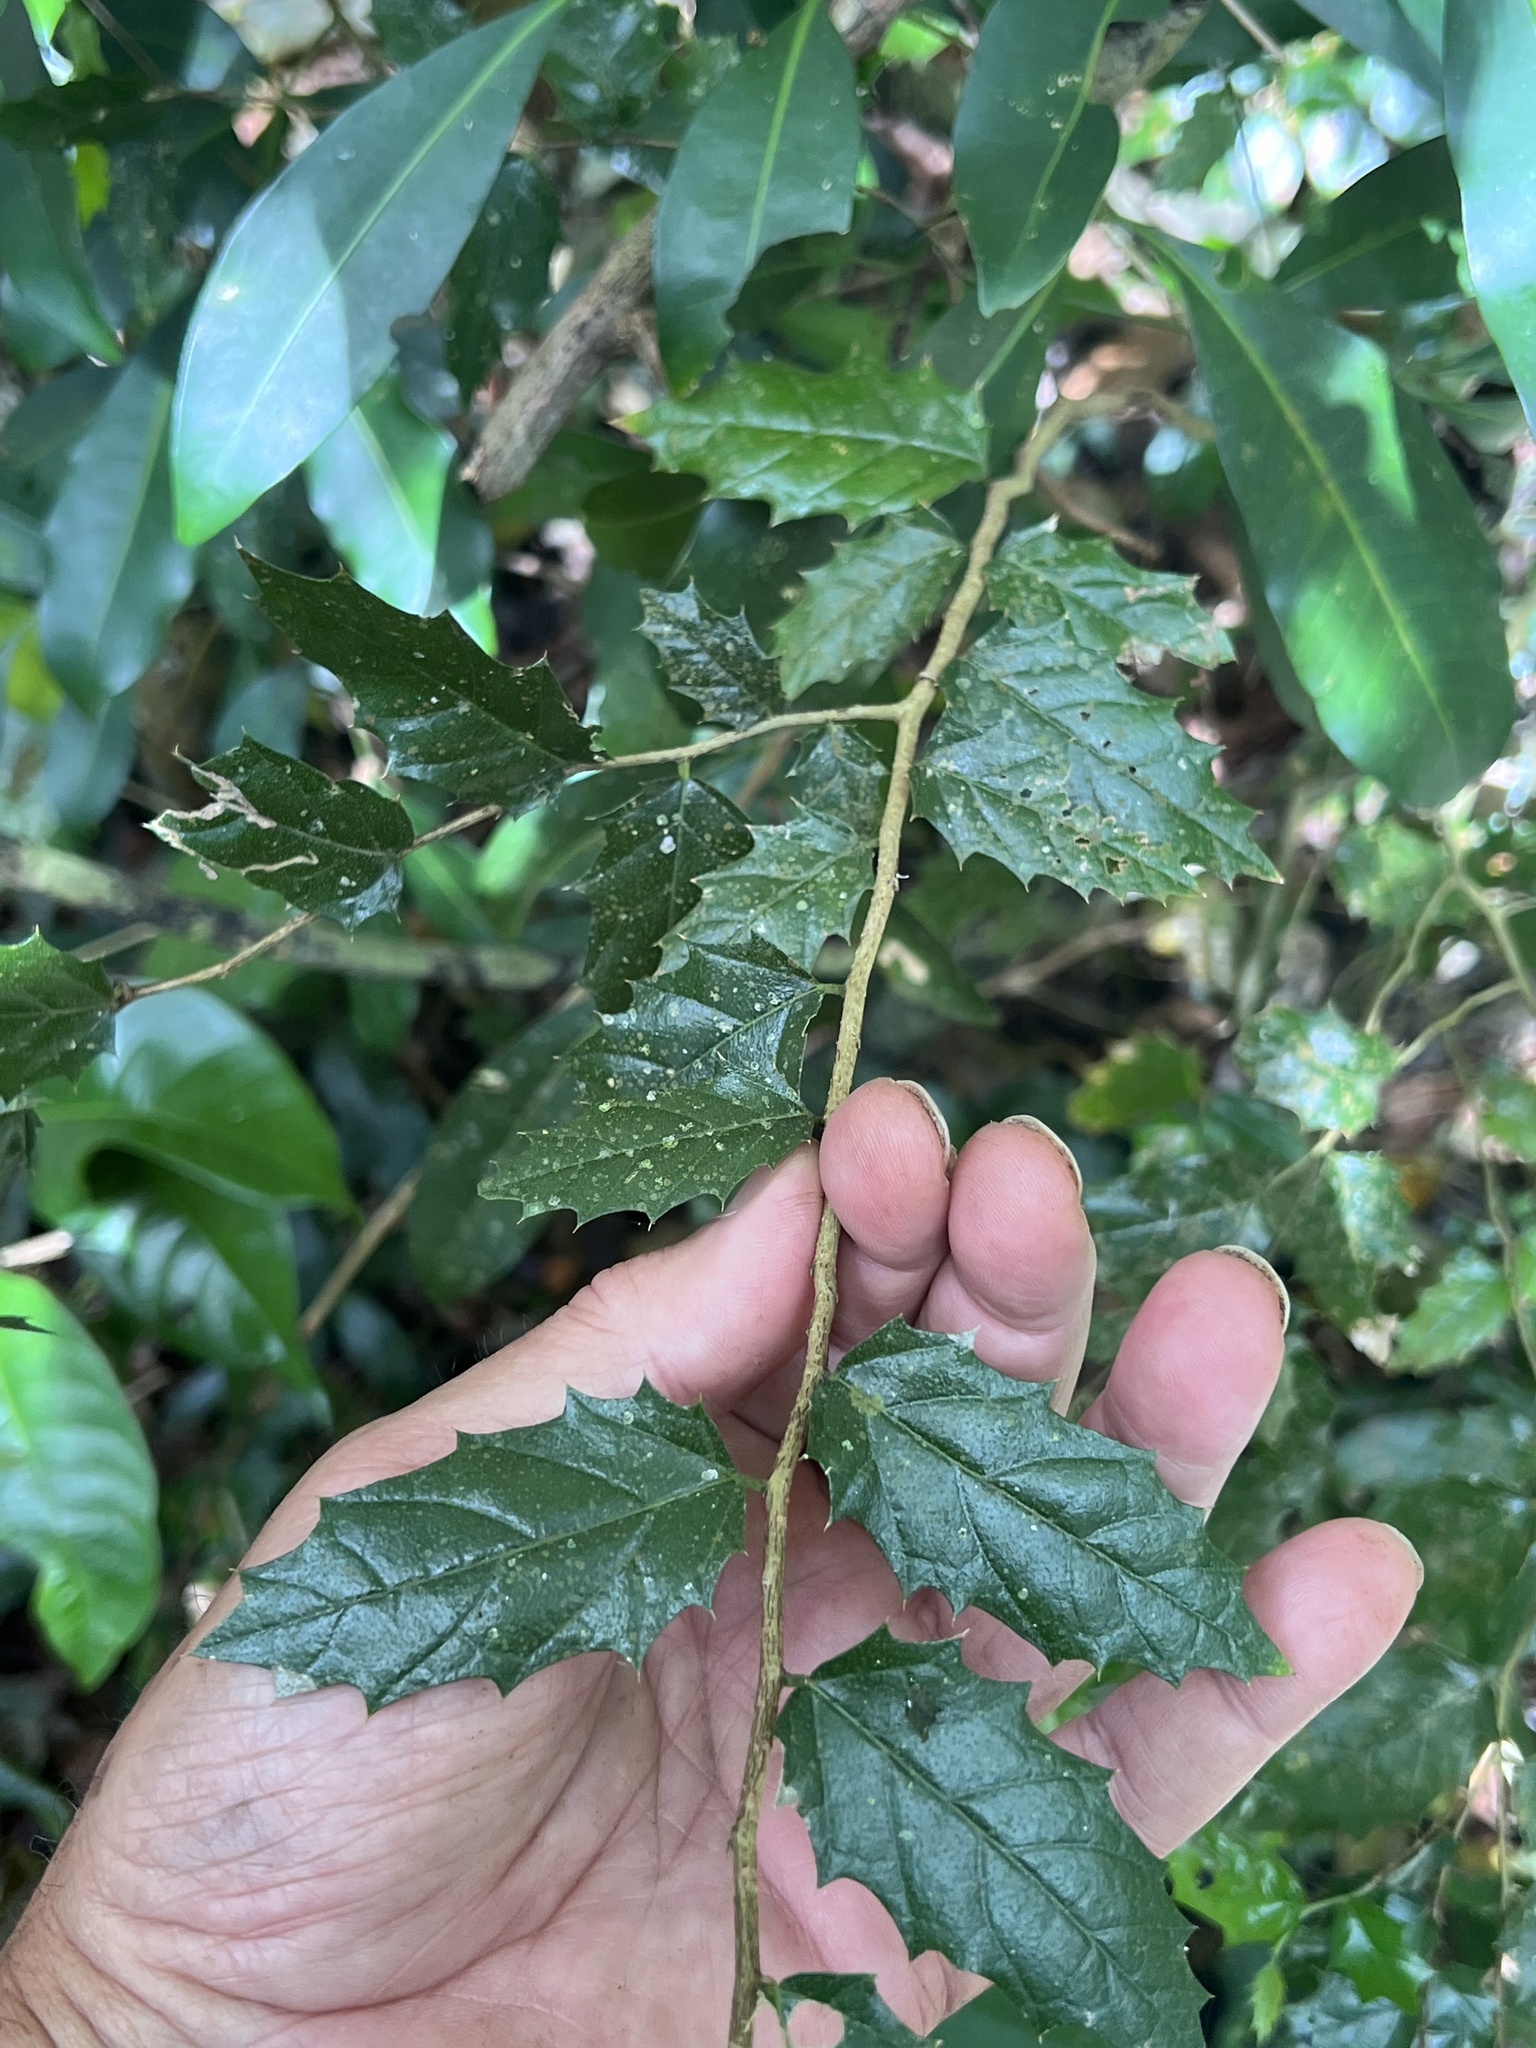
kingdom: Plantae
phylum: Tracheophyta
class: Magnoliopsida
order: Rosales
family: Cannabaceae
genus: Aphananthe
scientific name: Aphananthe philippinensis
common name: Wild holly
